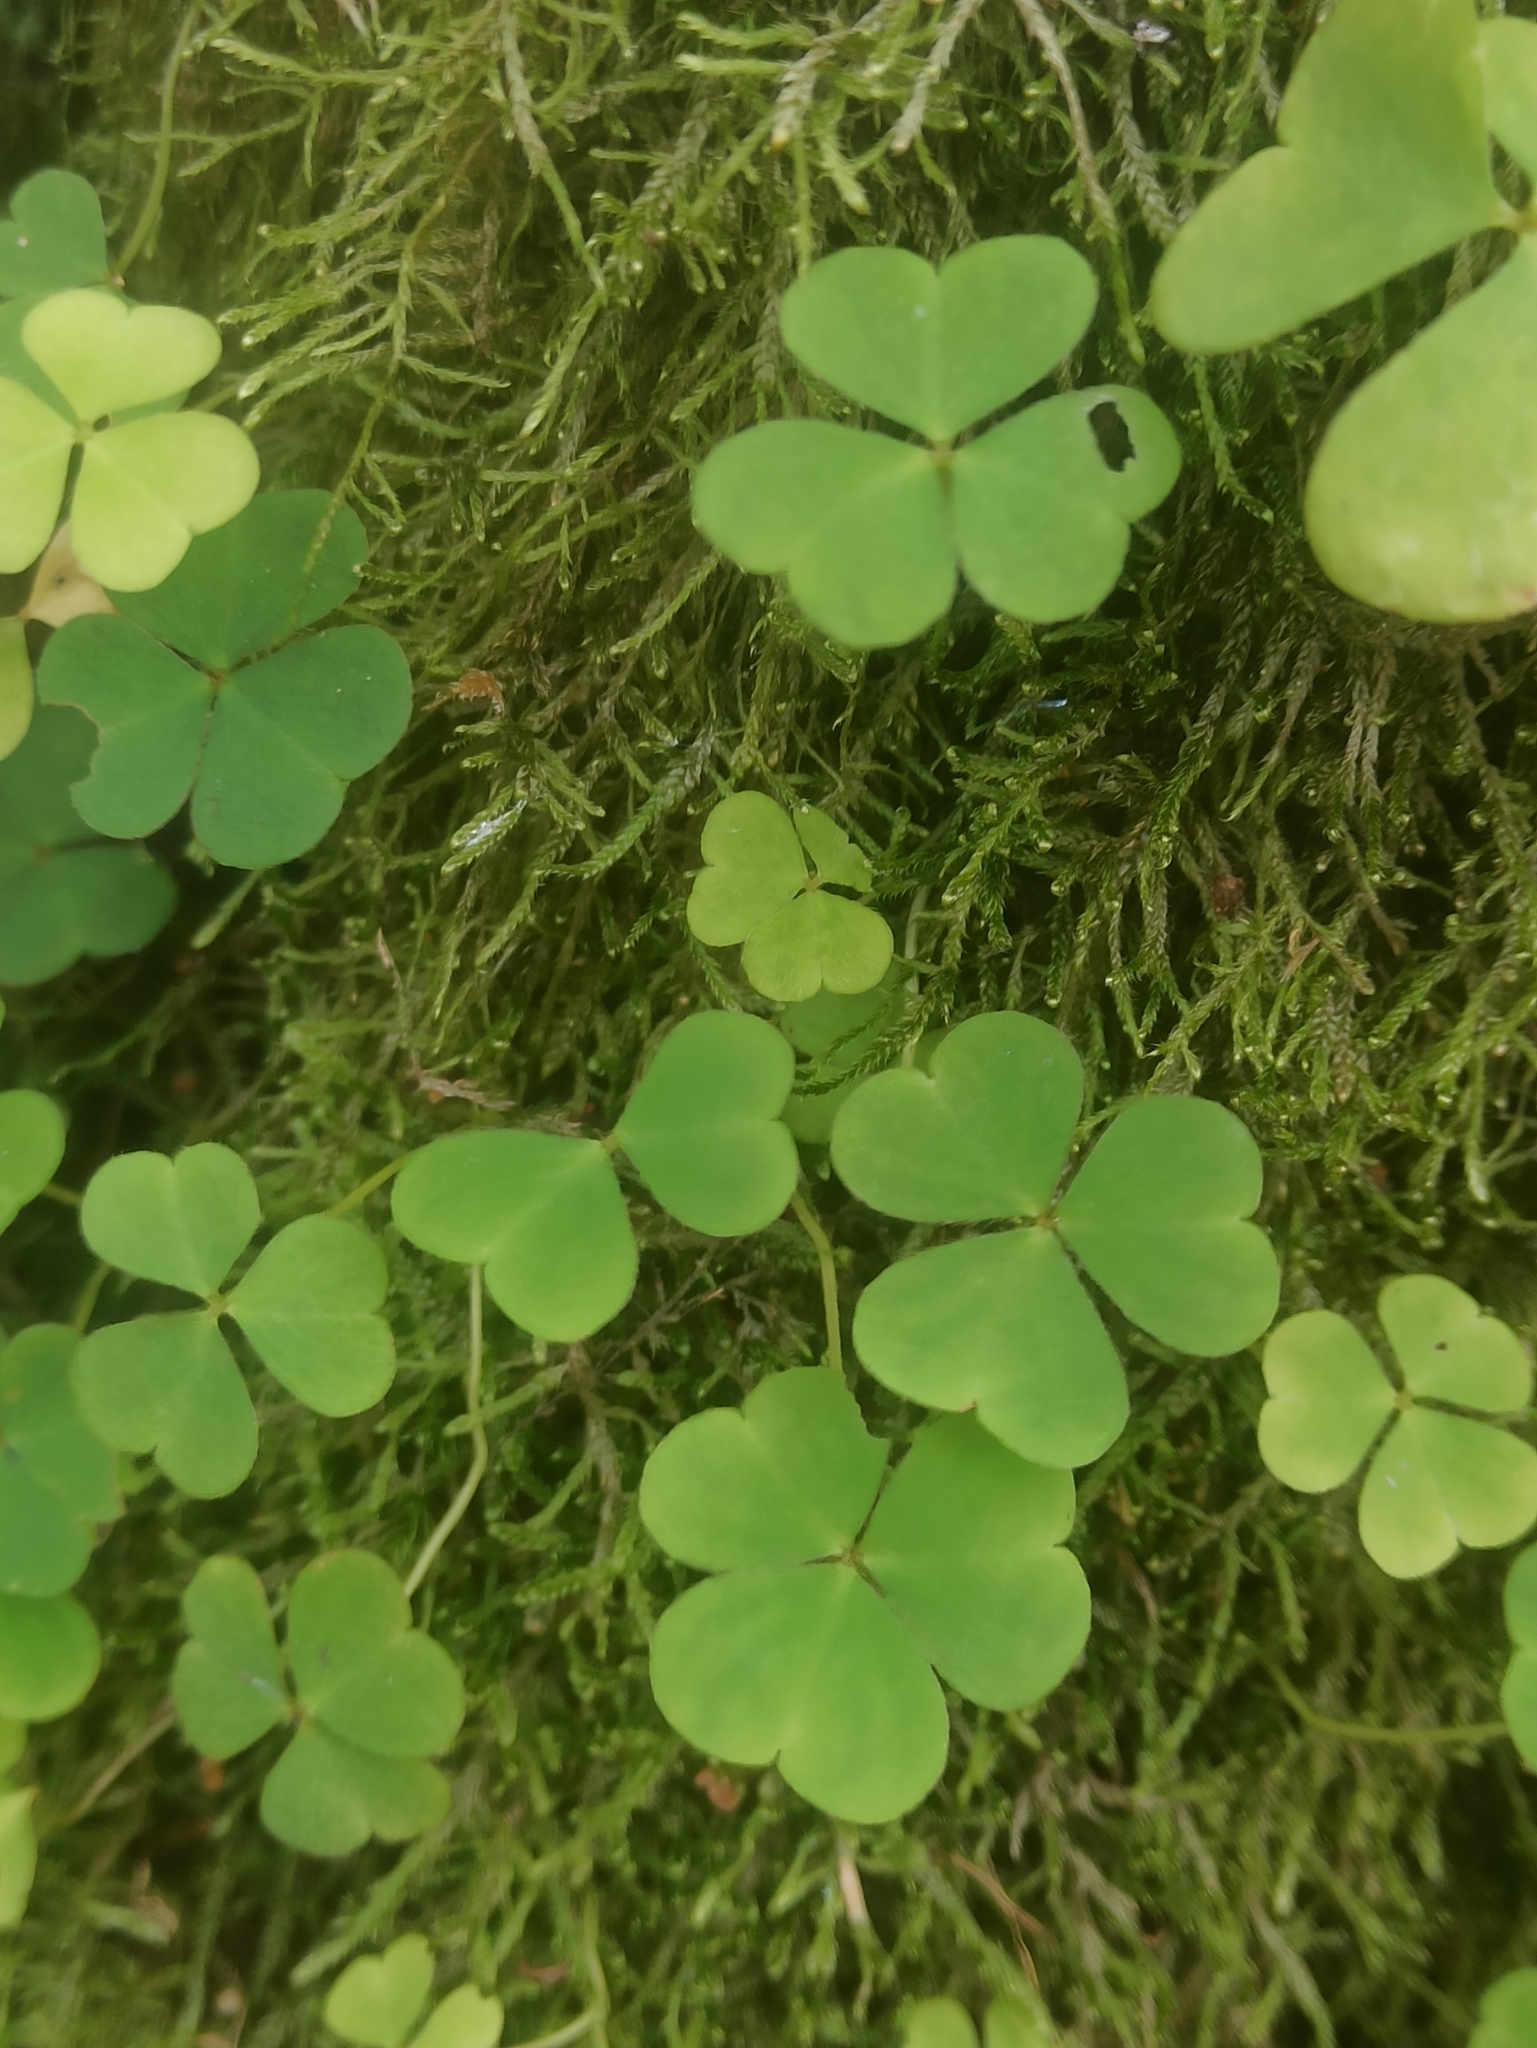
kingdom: Plantae
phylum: Tracheophyta
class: Magnoliopsida
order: Oxalidales
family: Oxalidaceae
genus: Oxalis
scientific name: Oxalis acetosella
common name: Wood-sorrel
